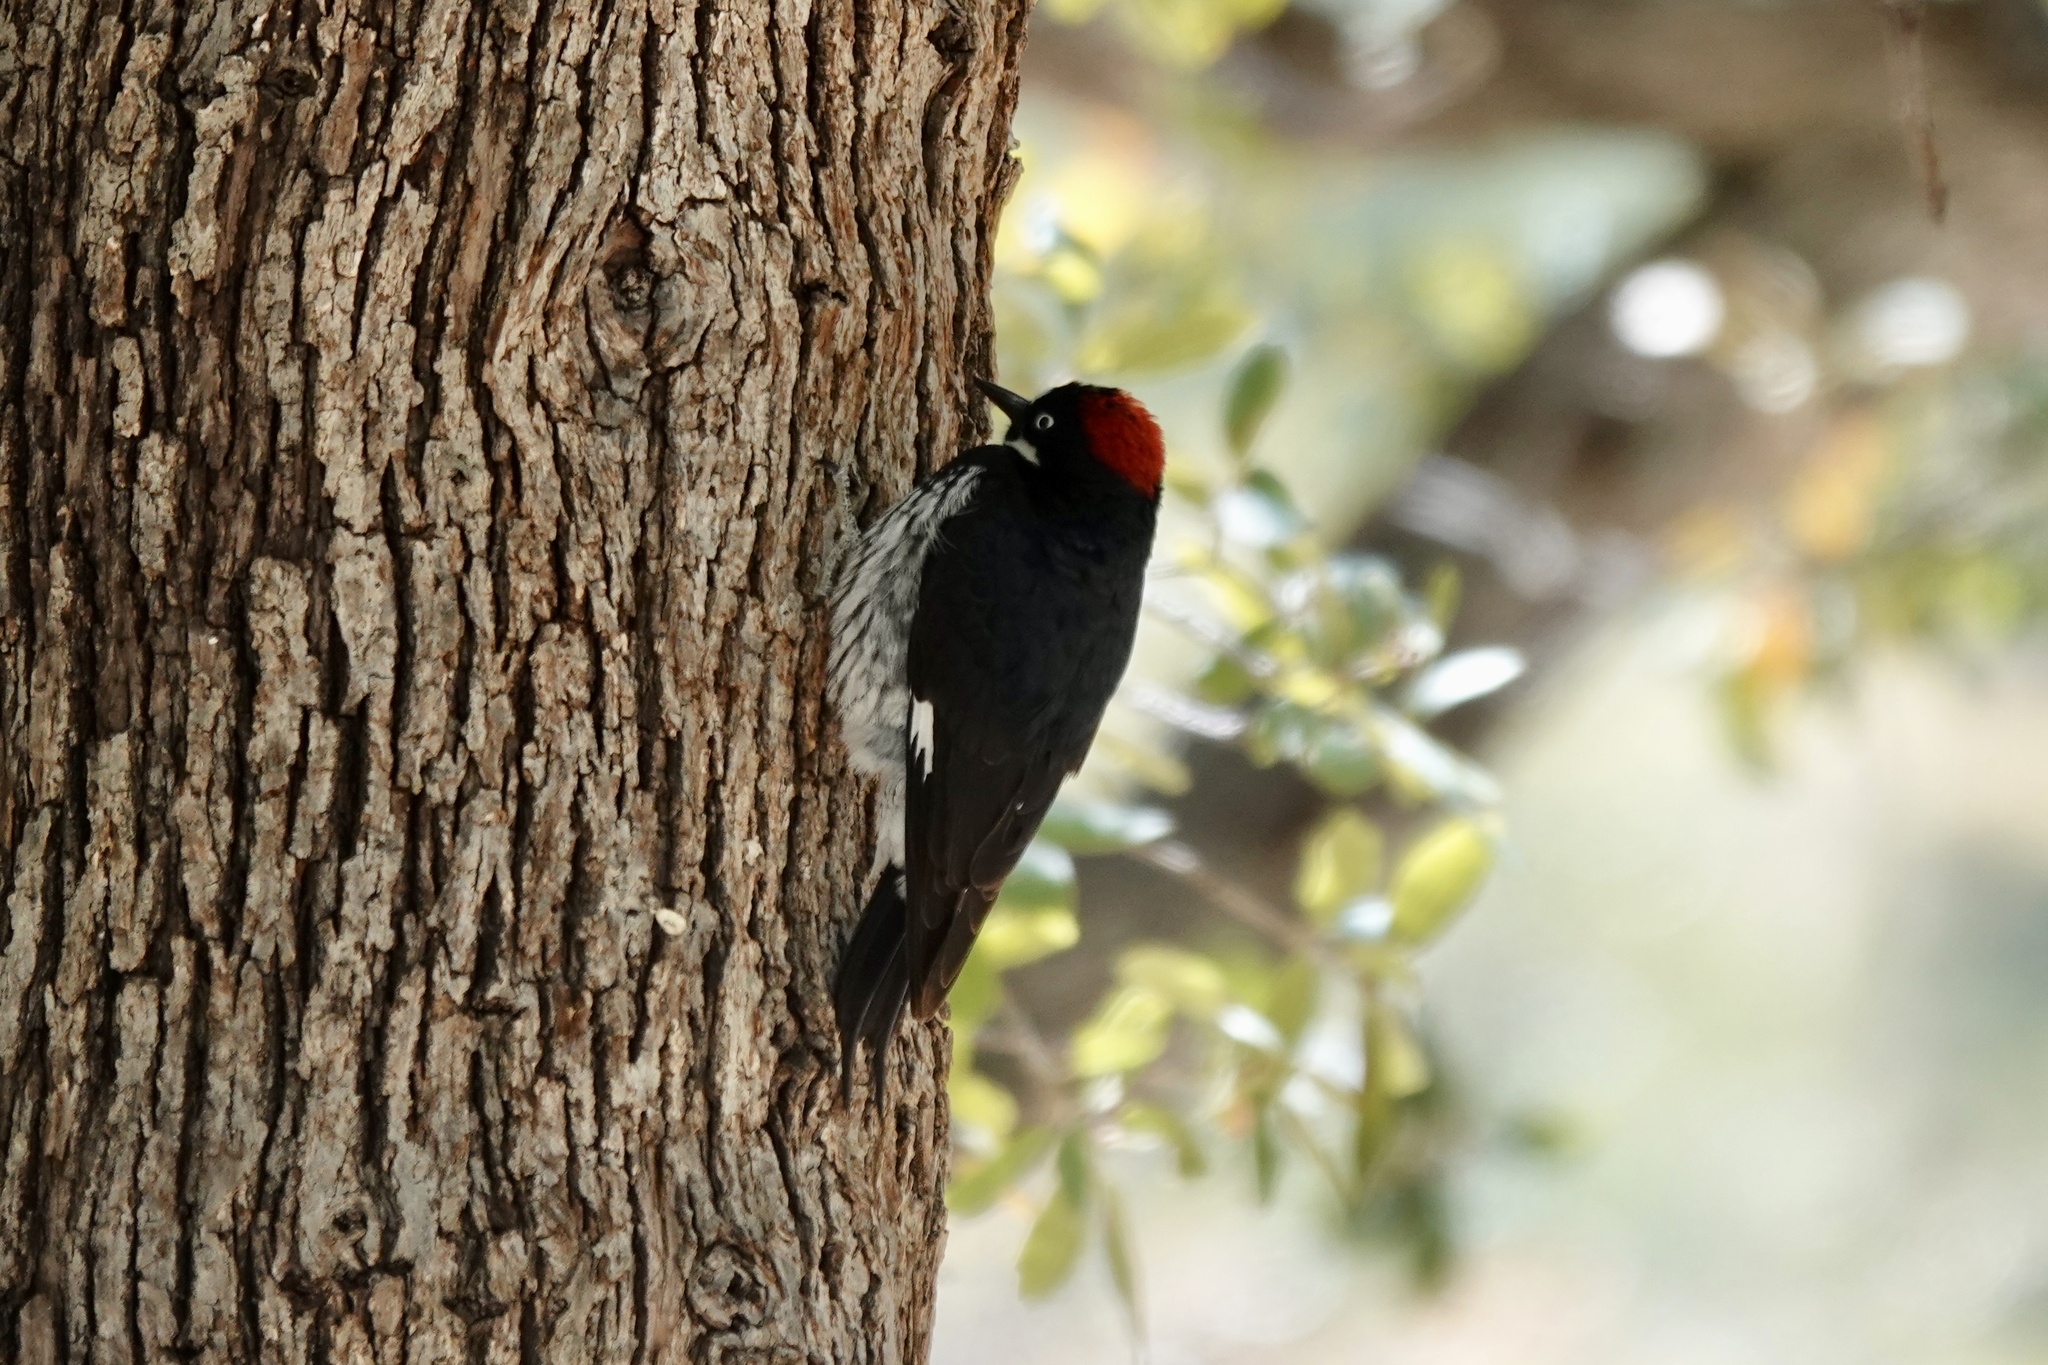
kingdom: Animalia
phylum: Chordata
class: Aves
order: Piciformes
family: Picidae
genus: Melanerpes
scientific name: Melanerpes formicivorus
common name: Acorn woodpecker
